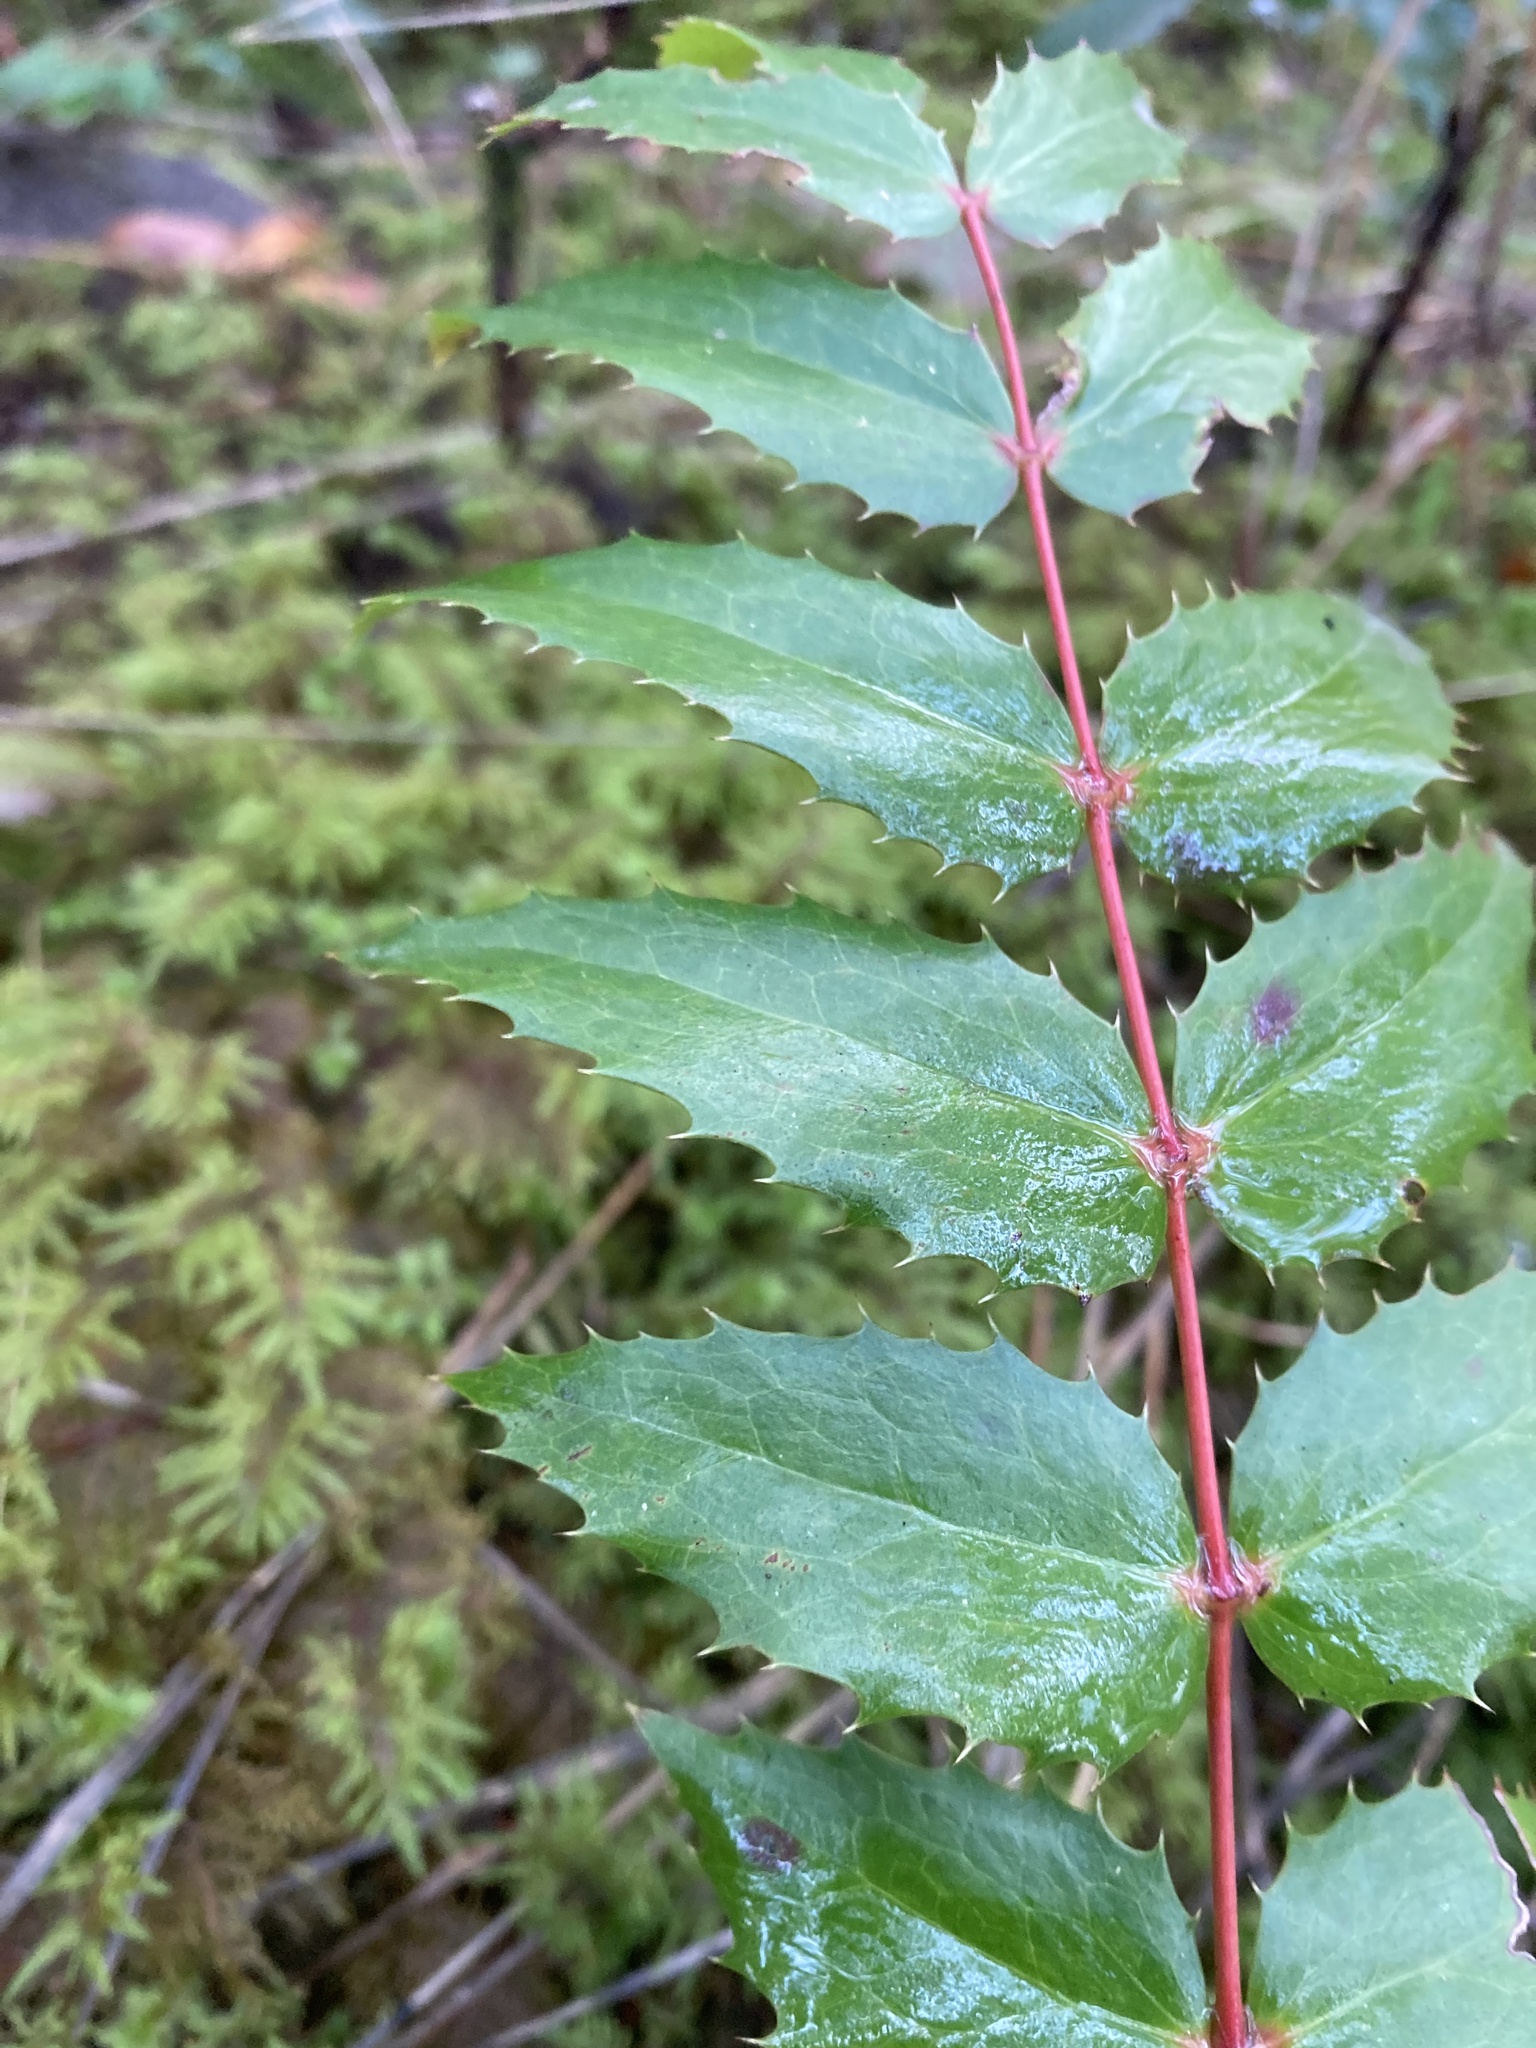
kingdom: Plantae
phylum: Tracheophyta
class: Magnoliopsida
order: Ranunculales
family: Berberidaceae
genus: Mahonia
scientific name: Mahonia nervosa
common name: Cascade oregon-grape
